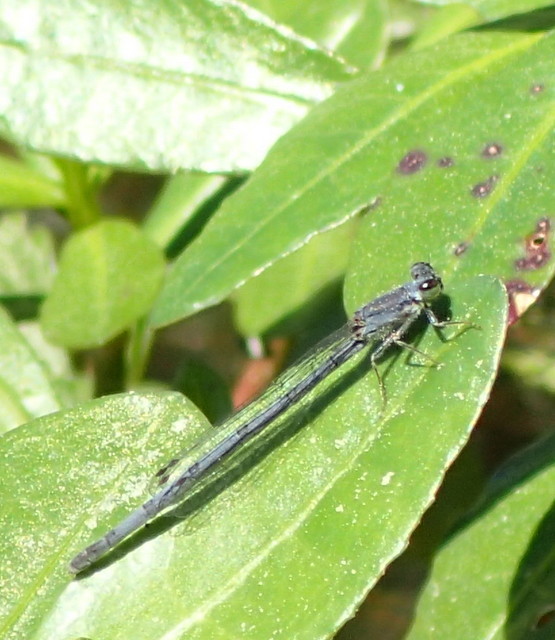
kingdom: Animalia
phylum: Arthropoda
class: Insecta
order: Odonata
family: Coenagrionidae
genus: Ischnura
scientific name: Ischnura posita
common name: Fragile forktail
